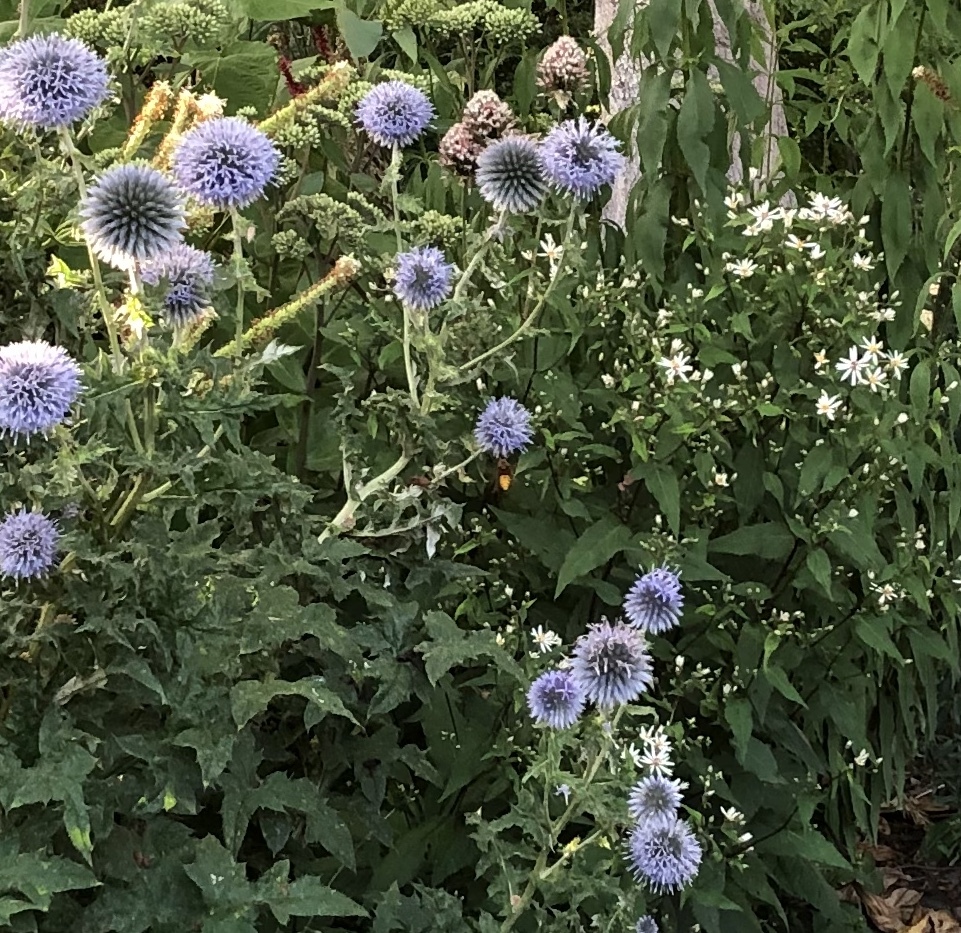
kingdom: Animalia
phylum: Arthropoda
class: Insecta
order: Hymenoptera
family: Vespidae
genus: Vespa
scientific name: Vespa crabro
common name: Hornet
